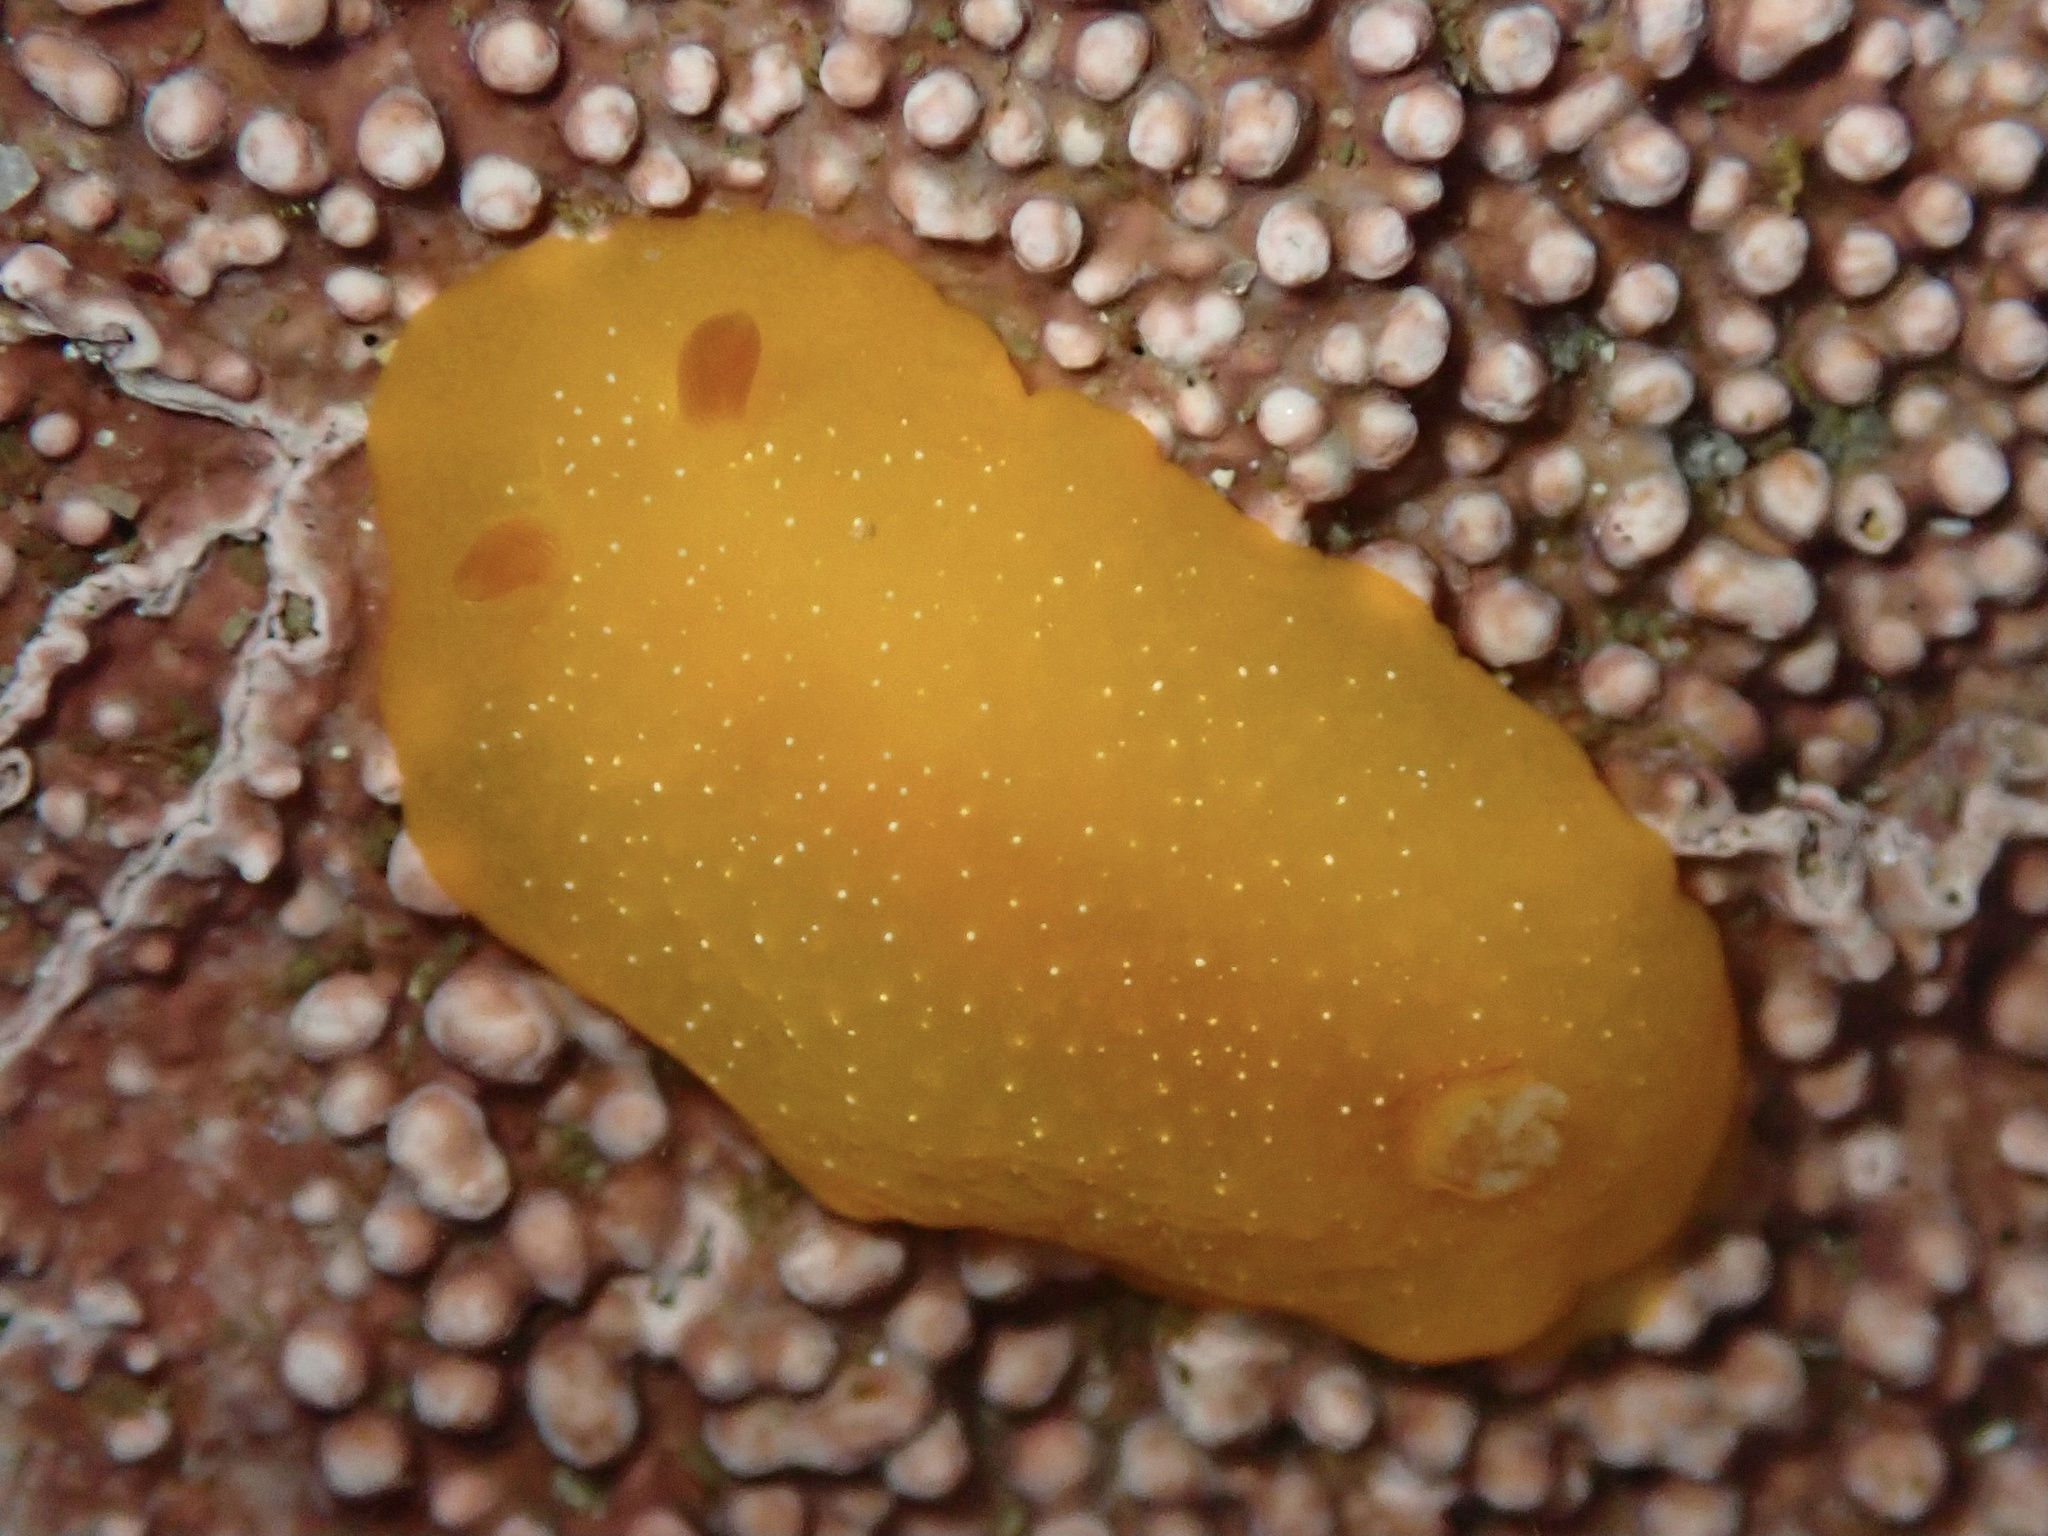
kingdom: Animalia
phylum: Mollusca
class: Gastropoda
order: Nudibranchia
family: Dendrodorididae
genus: Doriopsilla
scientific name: Doriopsilla fulva
